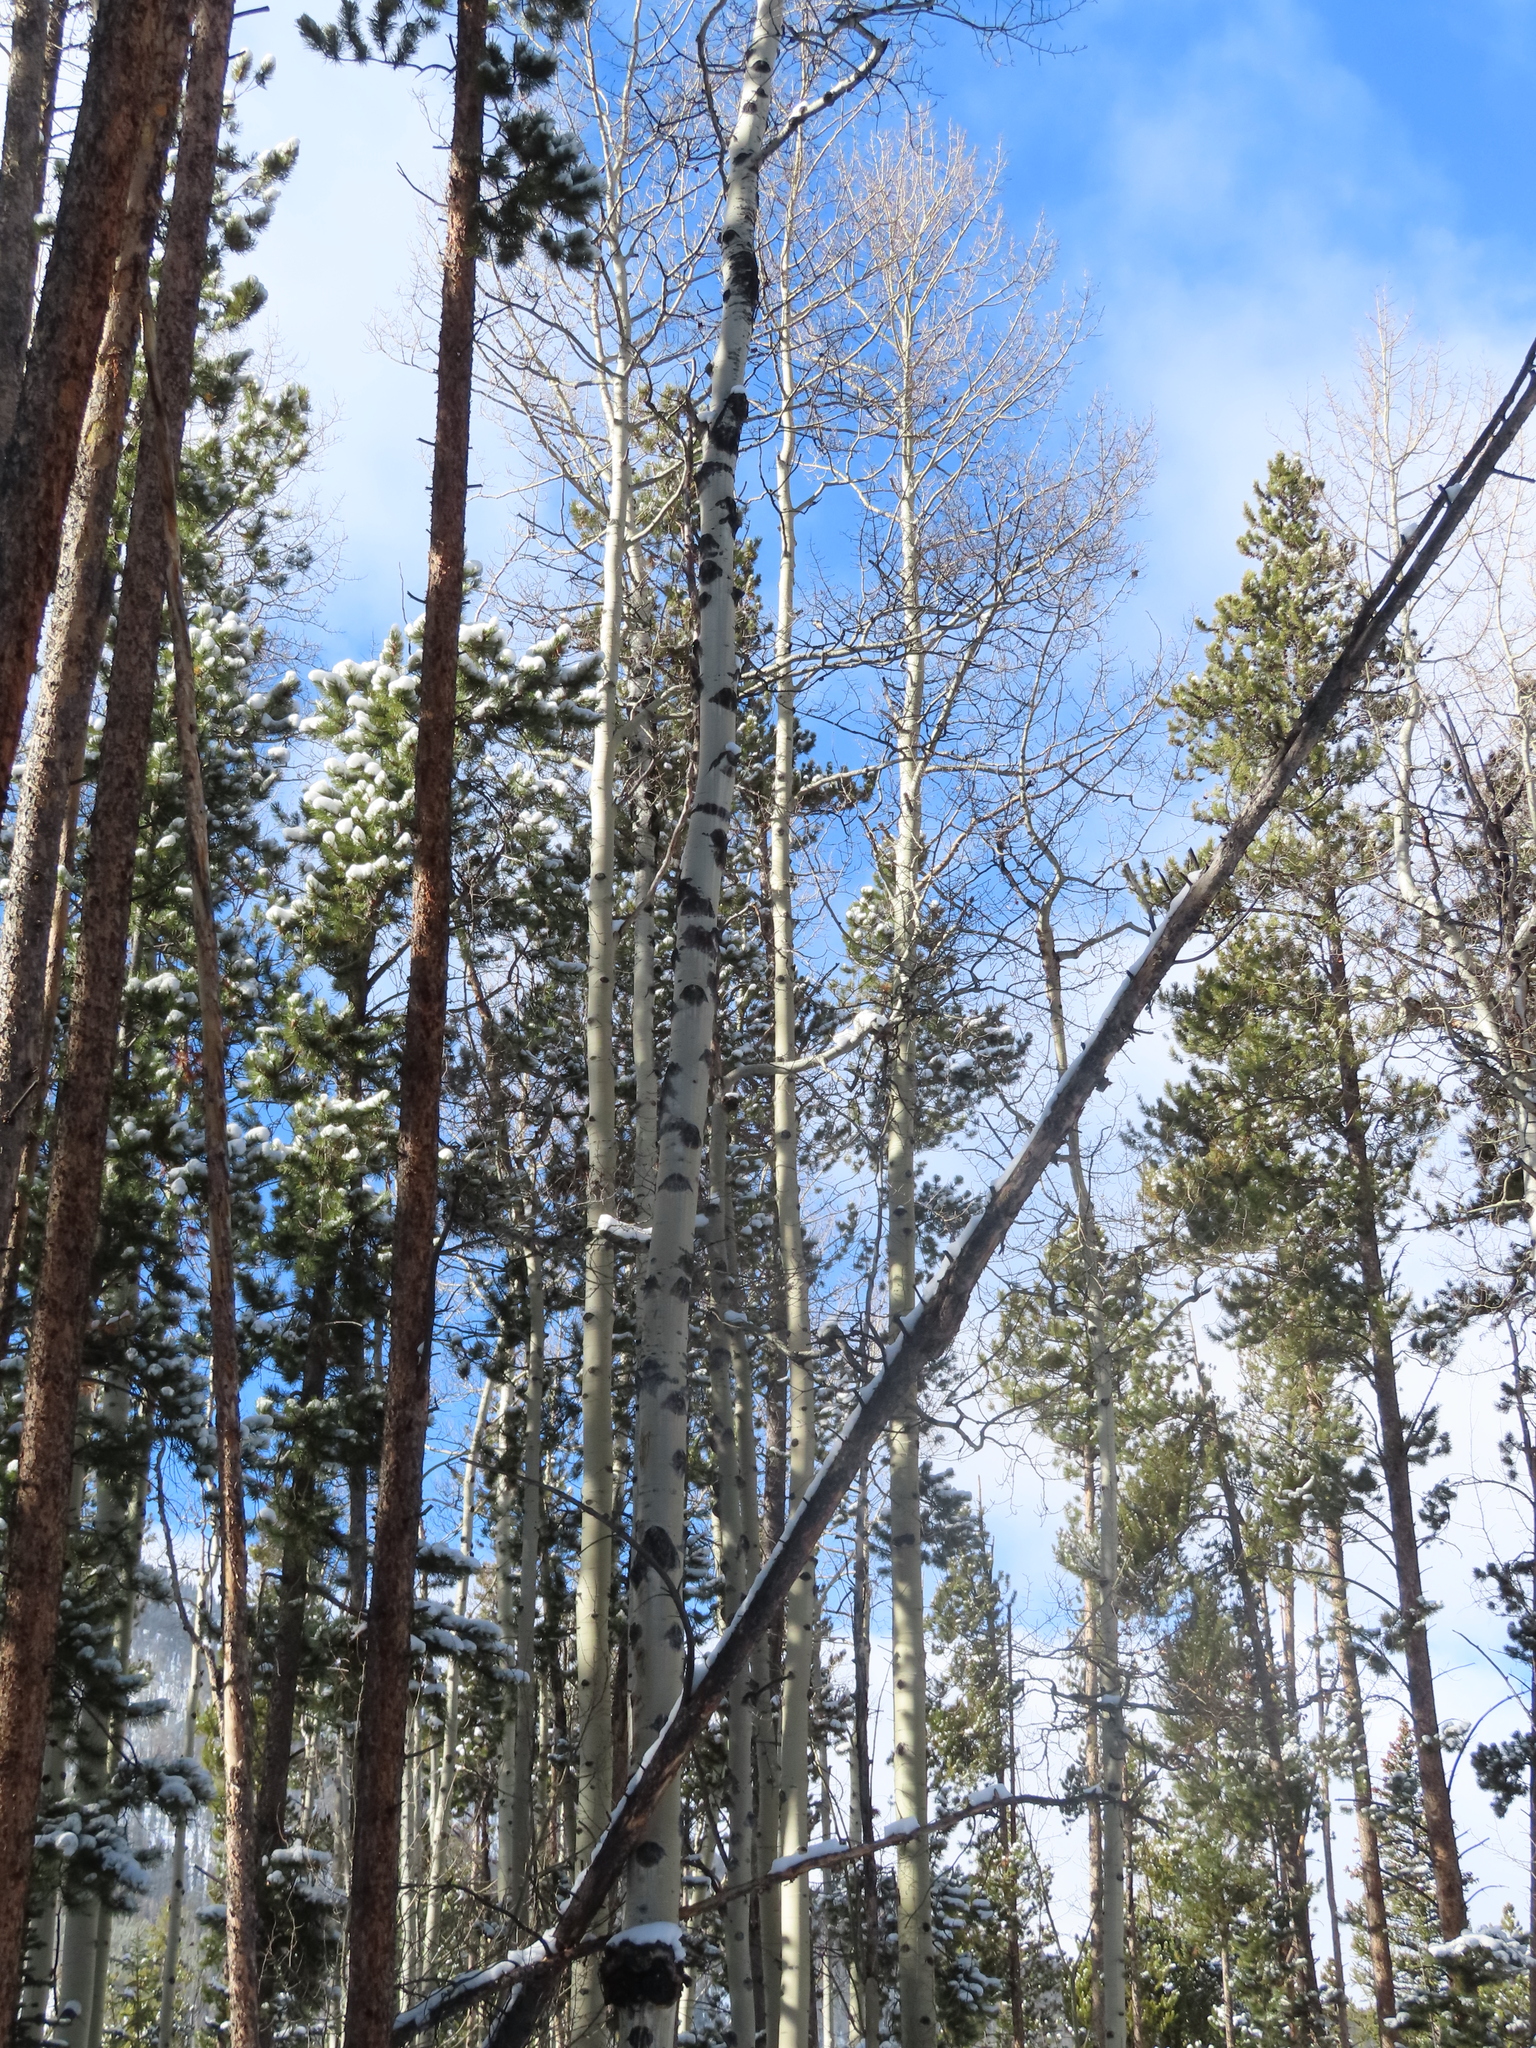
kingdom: Plantae
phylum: Tracheophyta
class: Magnoliopsida
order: Malpighiales
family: Salicaceae
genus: Populus
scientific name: Populus tremuloides
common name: Quaking aspen
